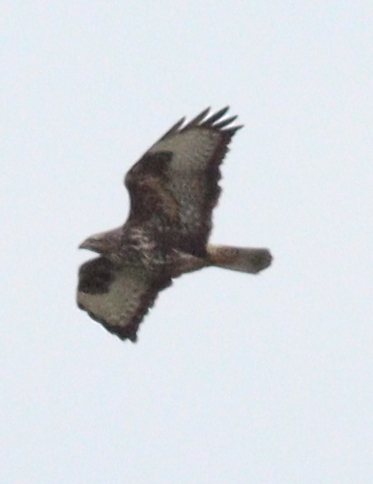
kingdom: Animalia
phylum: Chordata
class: Aves
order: Accipitriformes
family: Accipitridae
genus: Buteo
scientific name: Buteo buteo
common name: Common buzzard
